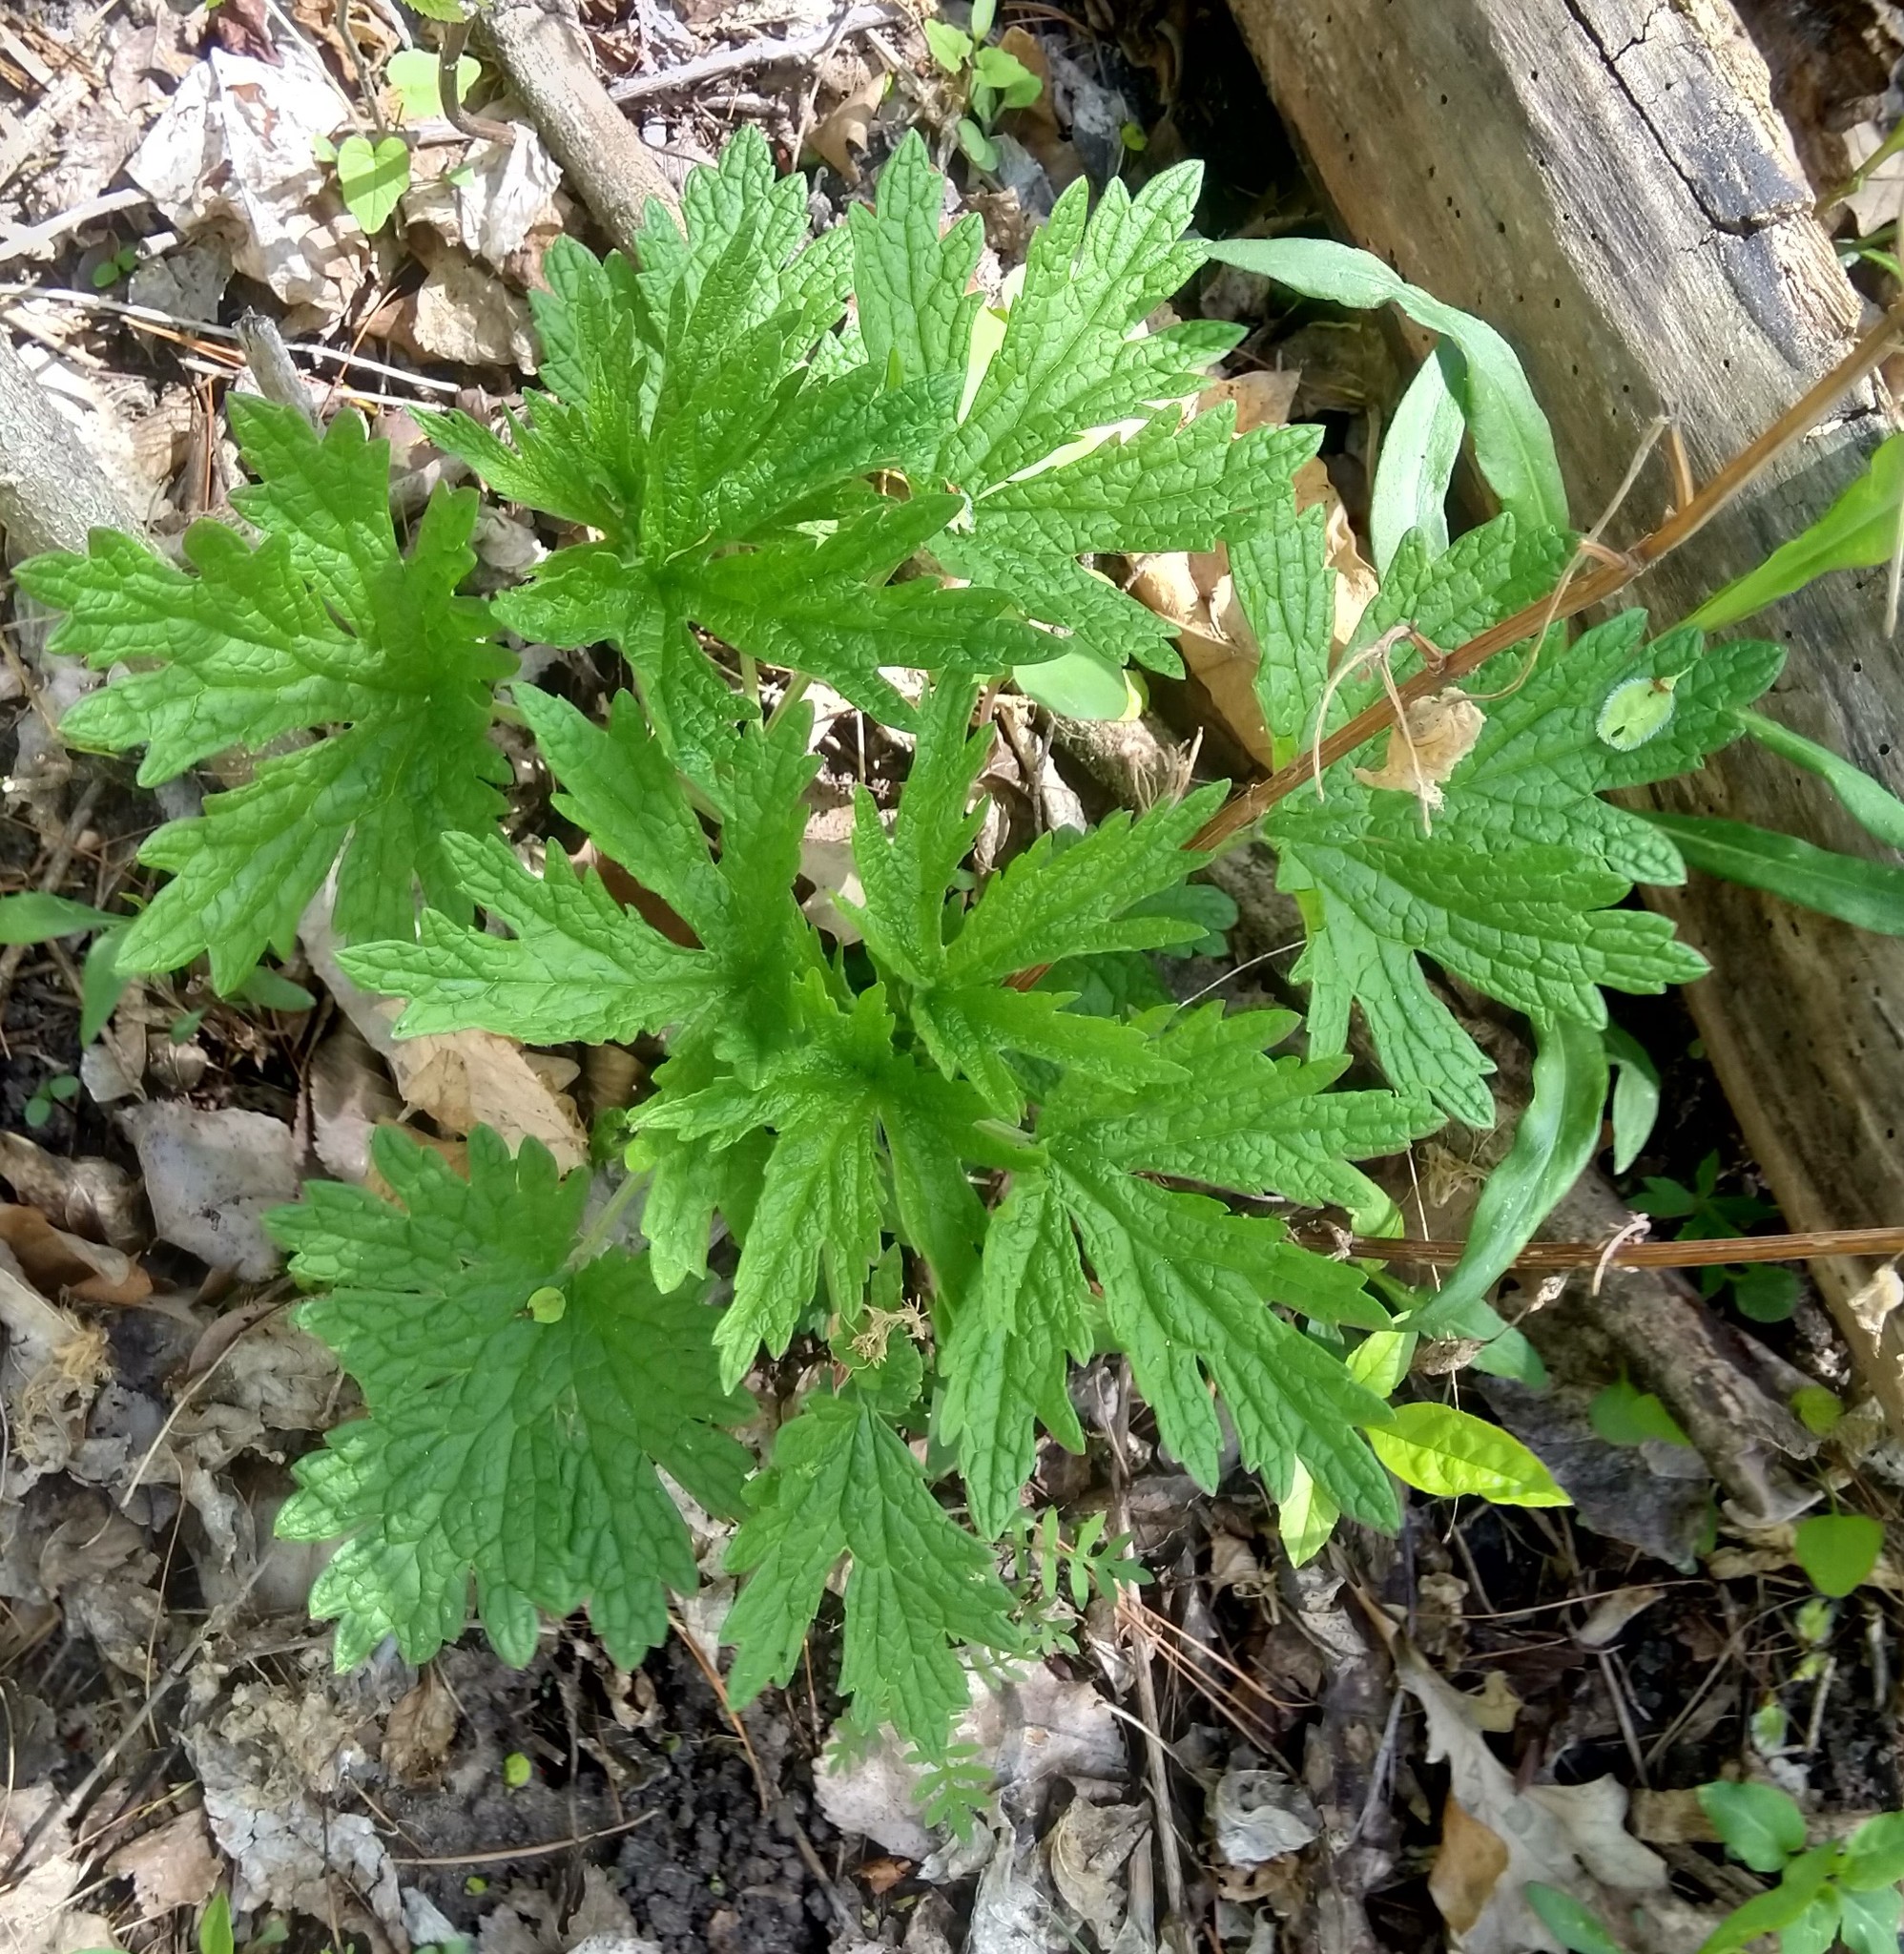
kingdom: Plantae
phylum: Tracheophyta
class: Magnoliopsida
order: Lamiales
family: Lamiaceae
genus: Leonurus
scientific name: Leonurus cardiaca
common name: Motherwort
